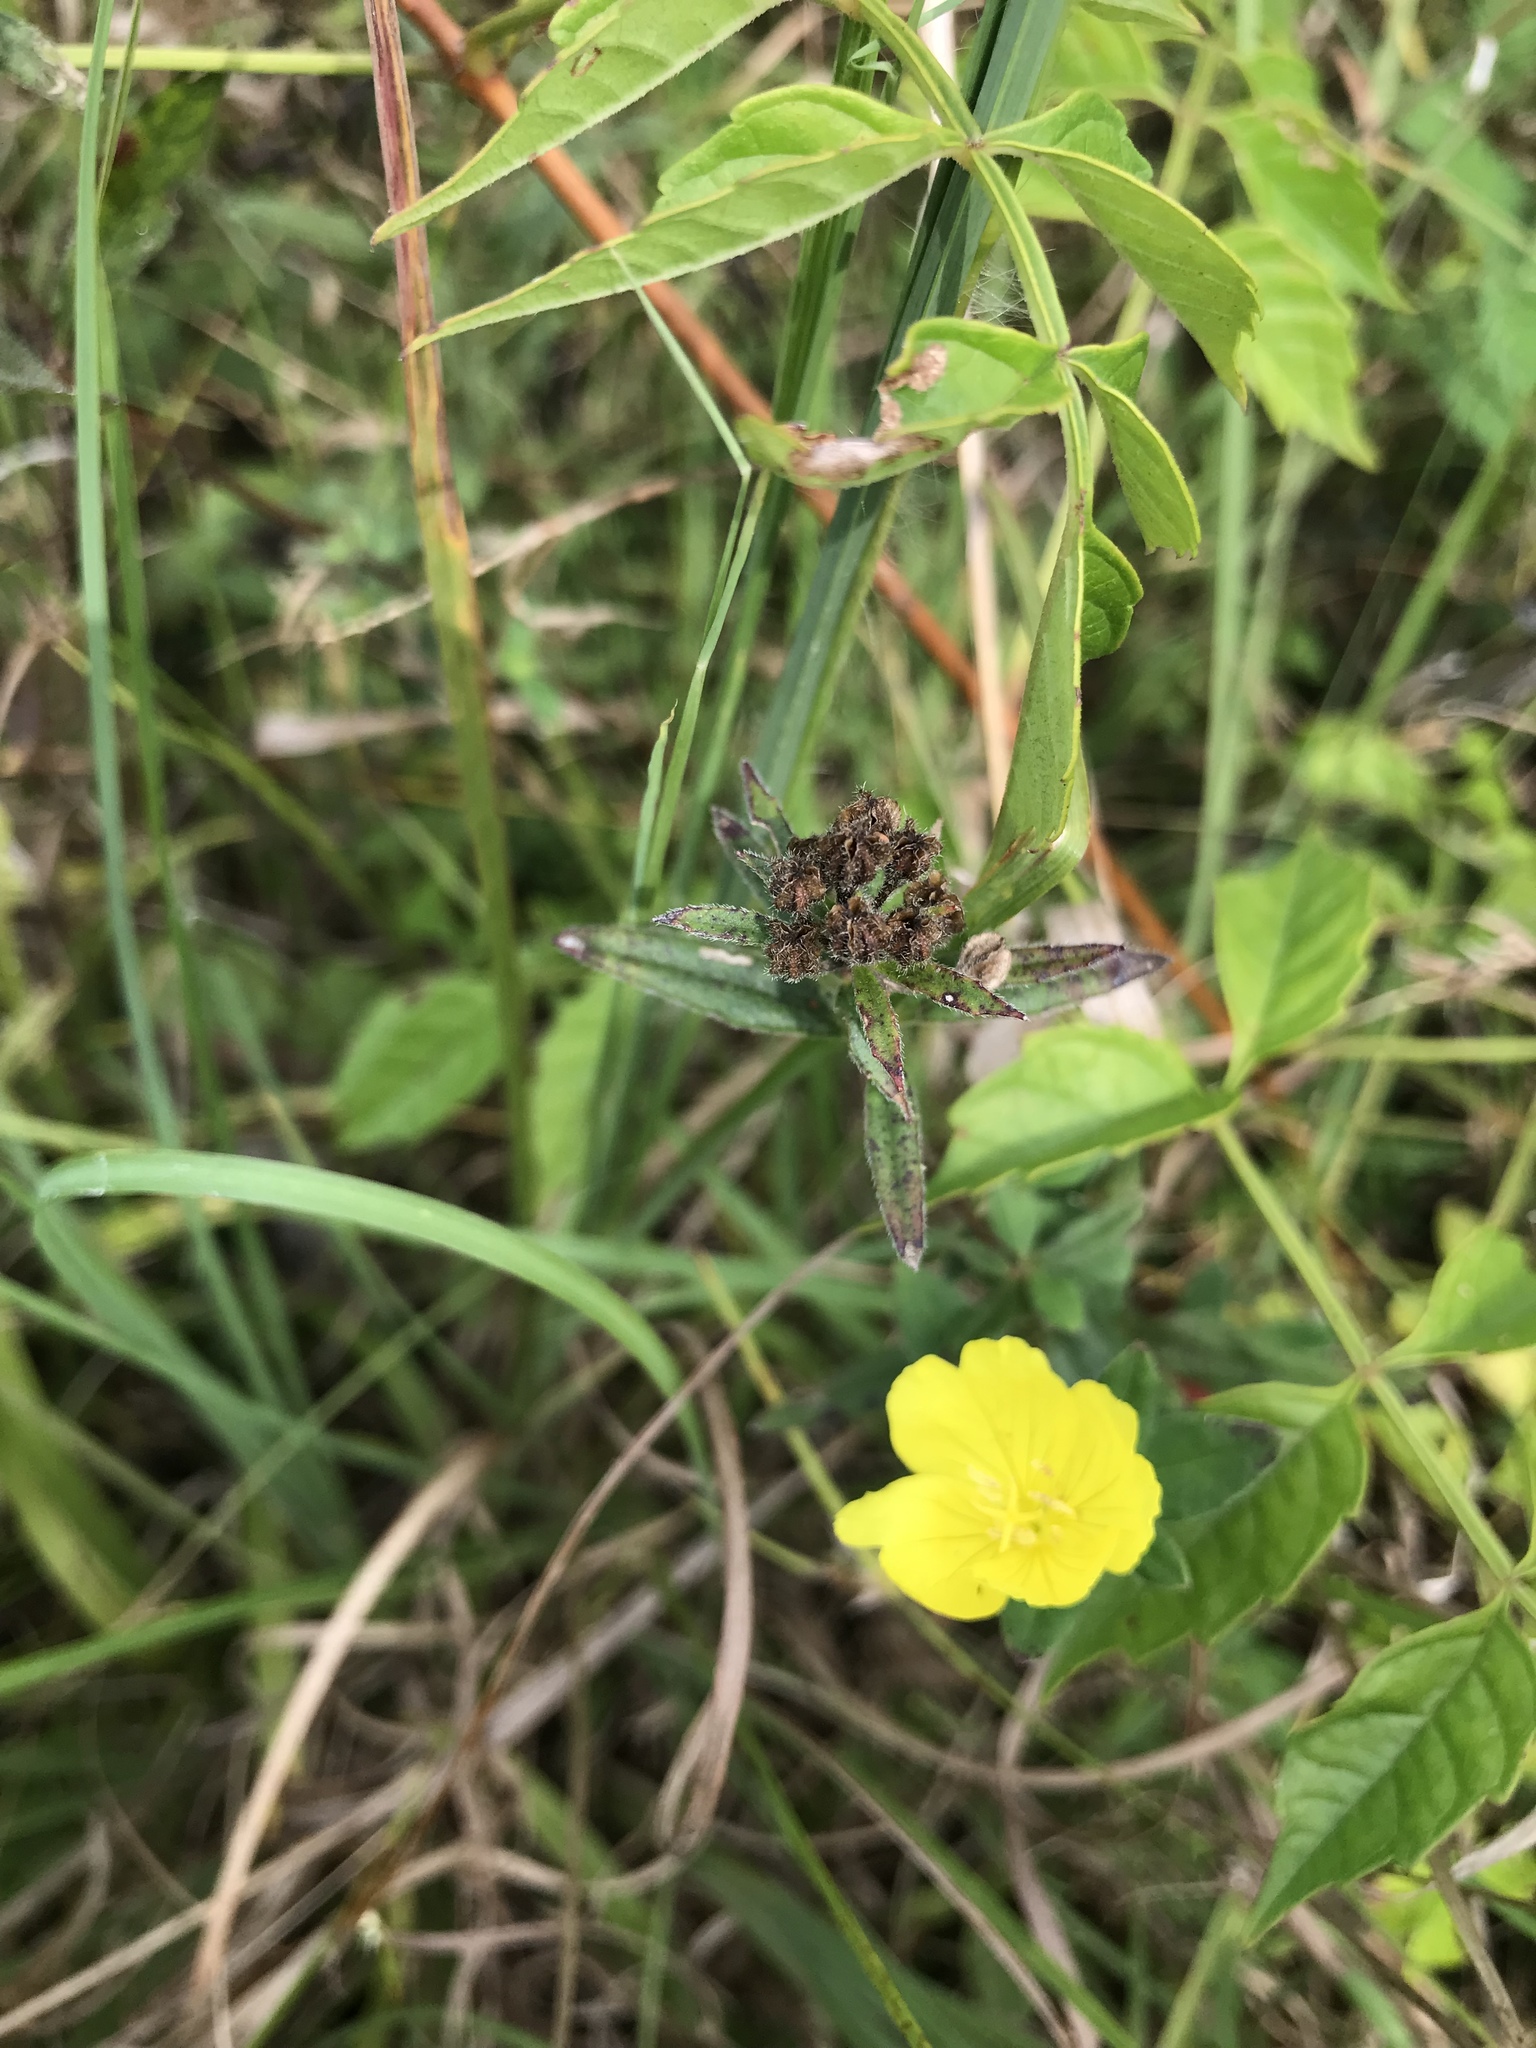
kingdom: Plantae
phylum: Tracheophyta
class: Magnoliopsida
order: Myrtales
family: Onagraceae
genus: Oenothera
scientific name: Oenothera fruticosa
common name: Southern sundrops
